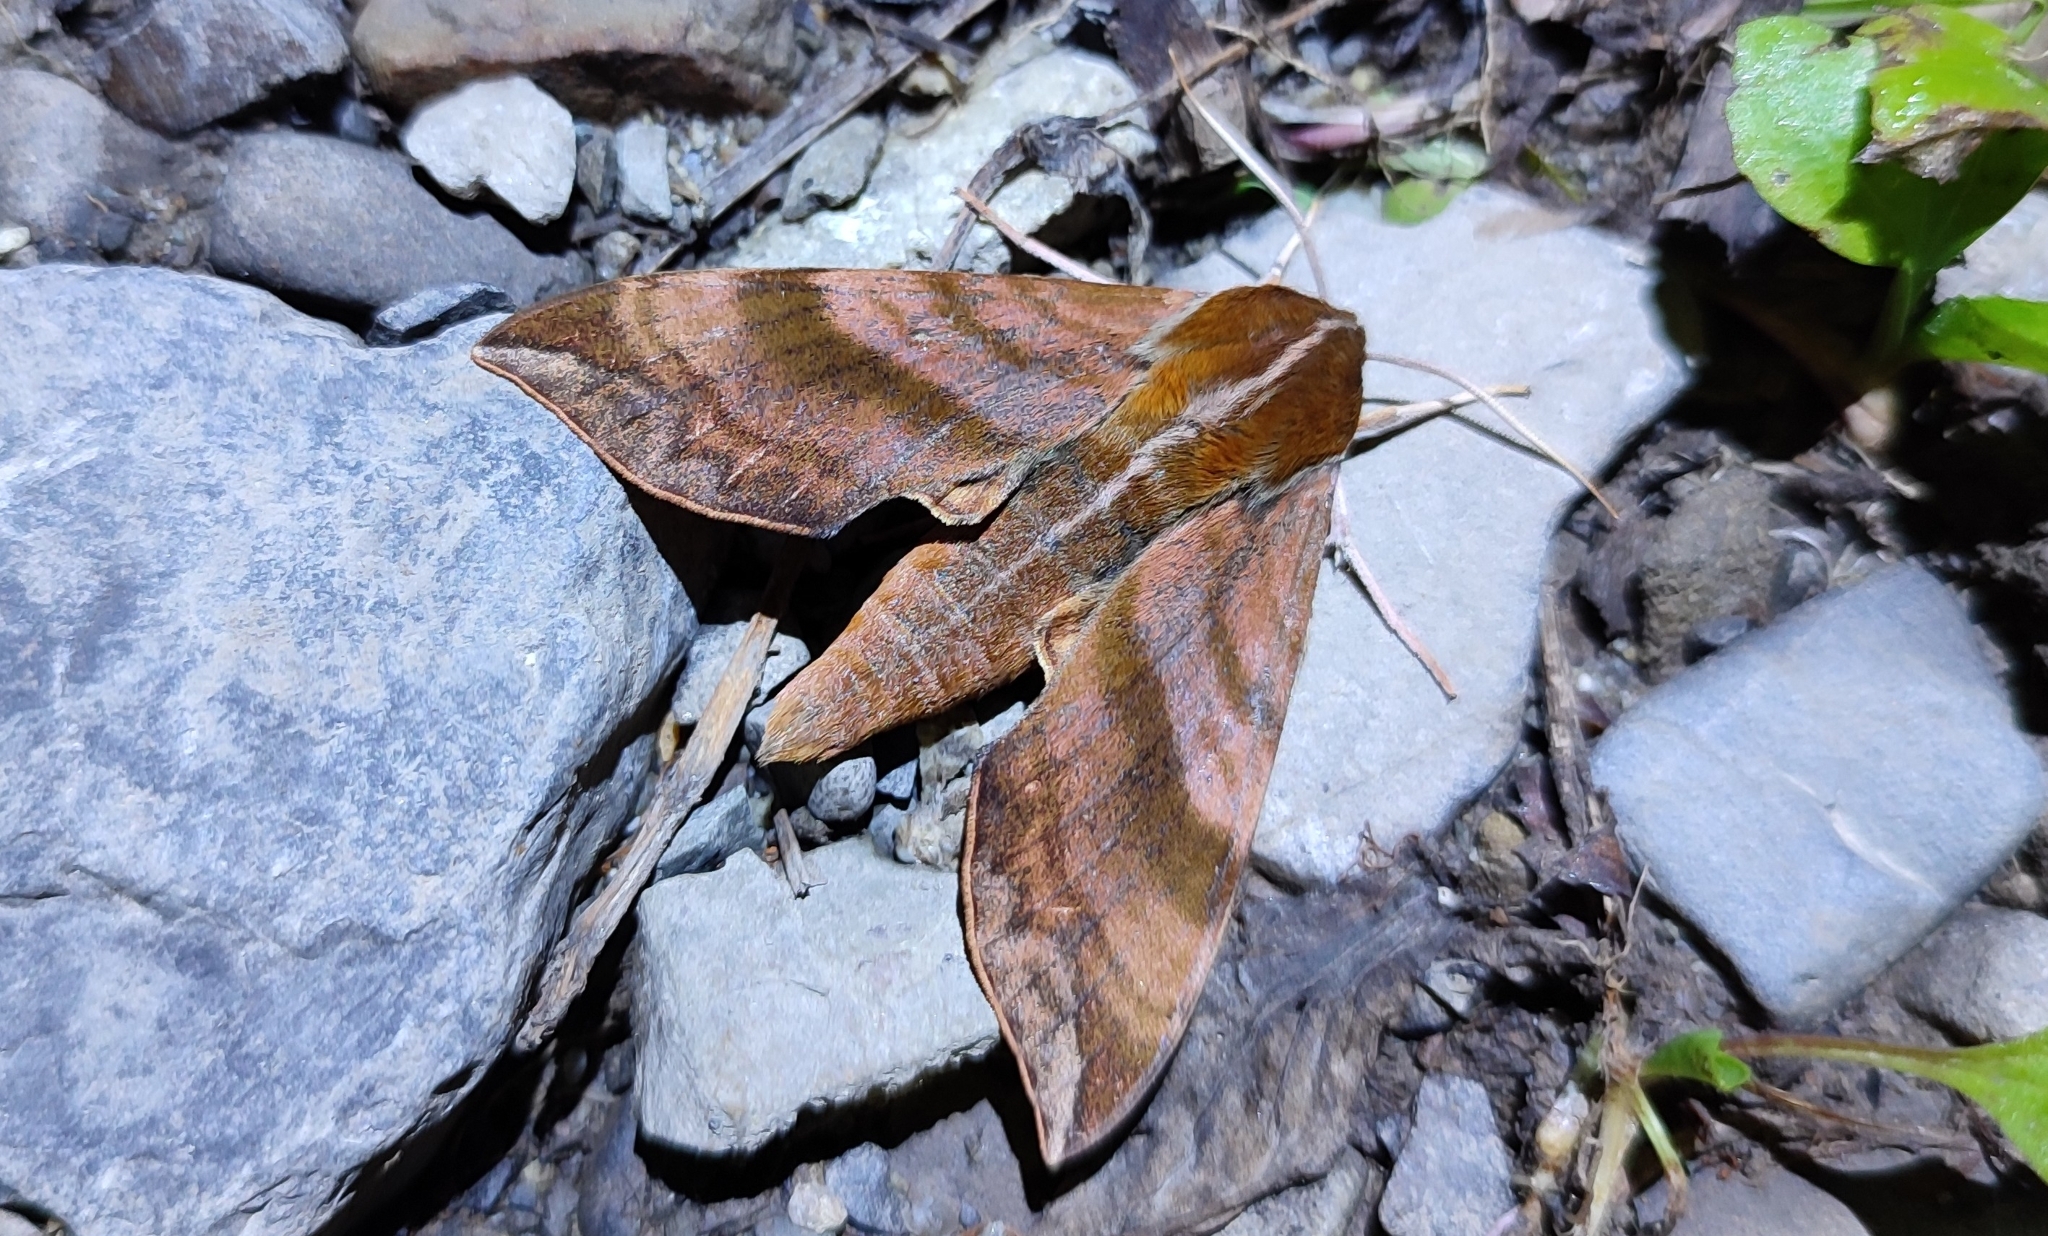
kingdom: Animalia
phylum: Arthropoda
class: Insecta
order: Lepidoptera
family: Sphingidae
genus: Ampelophaga
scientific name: Ampelophaga rubiginosa
